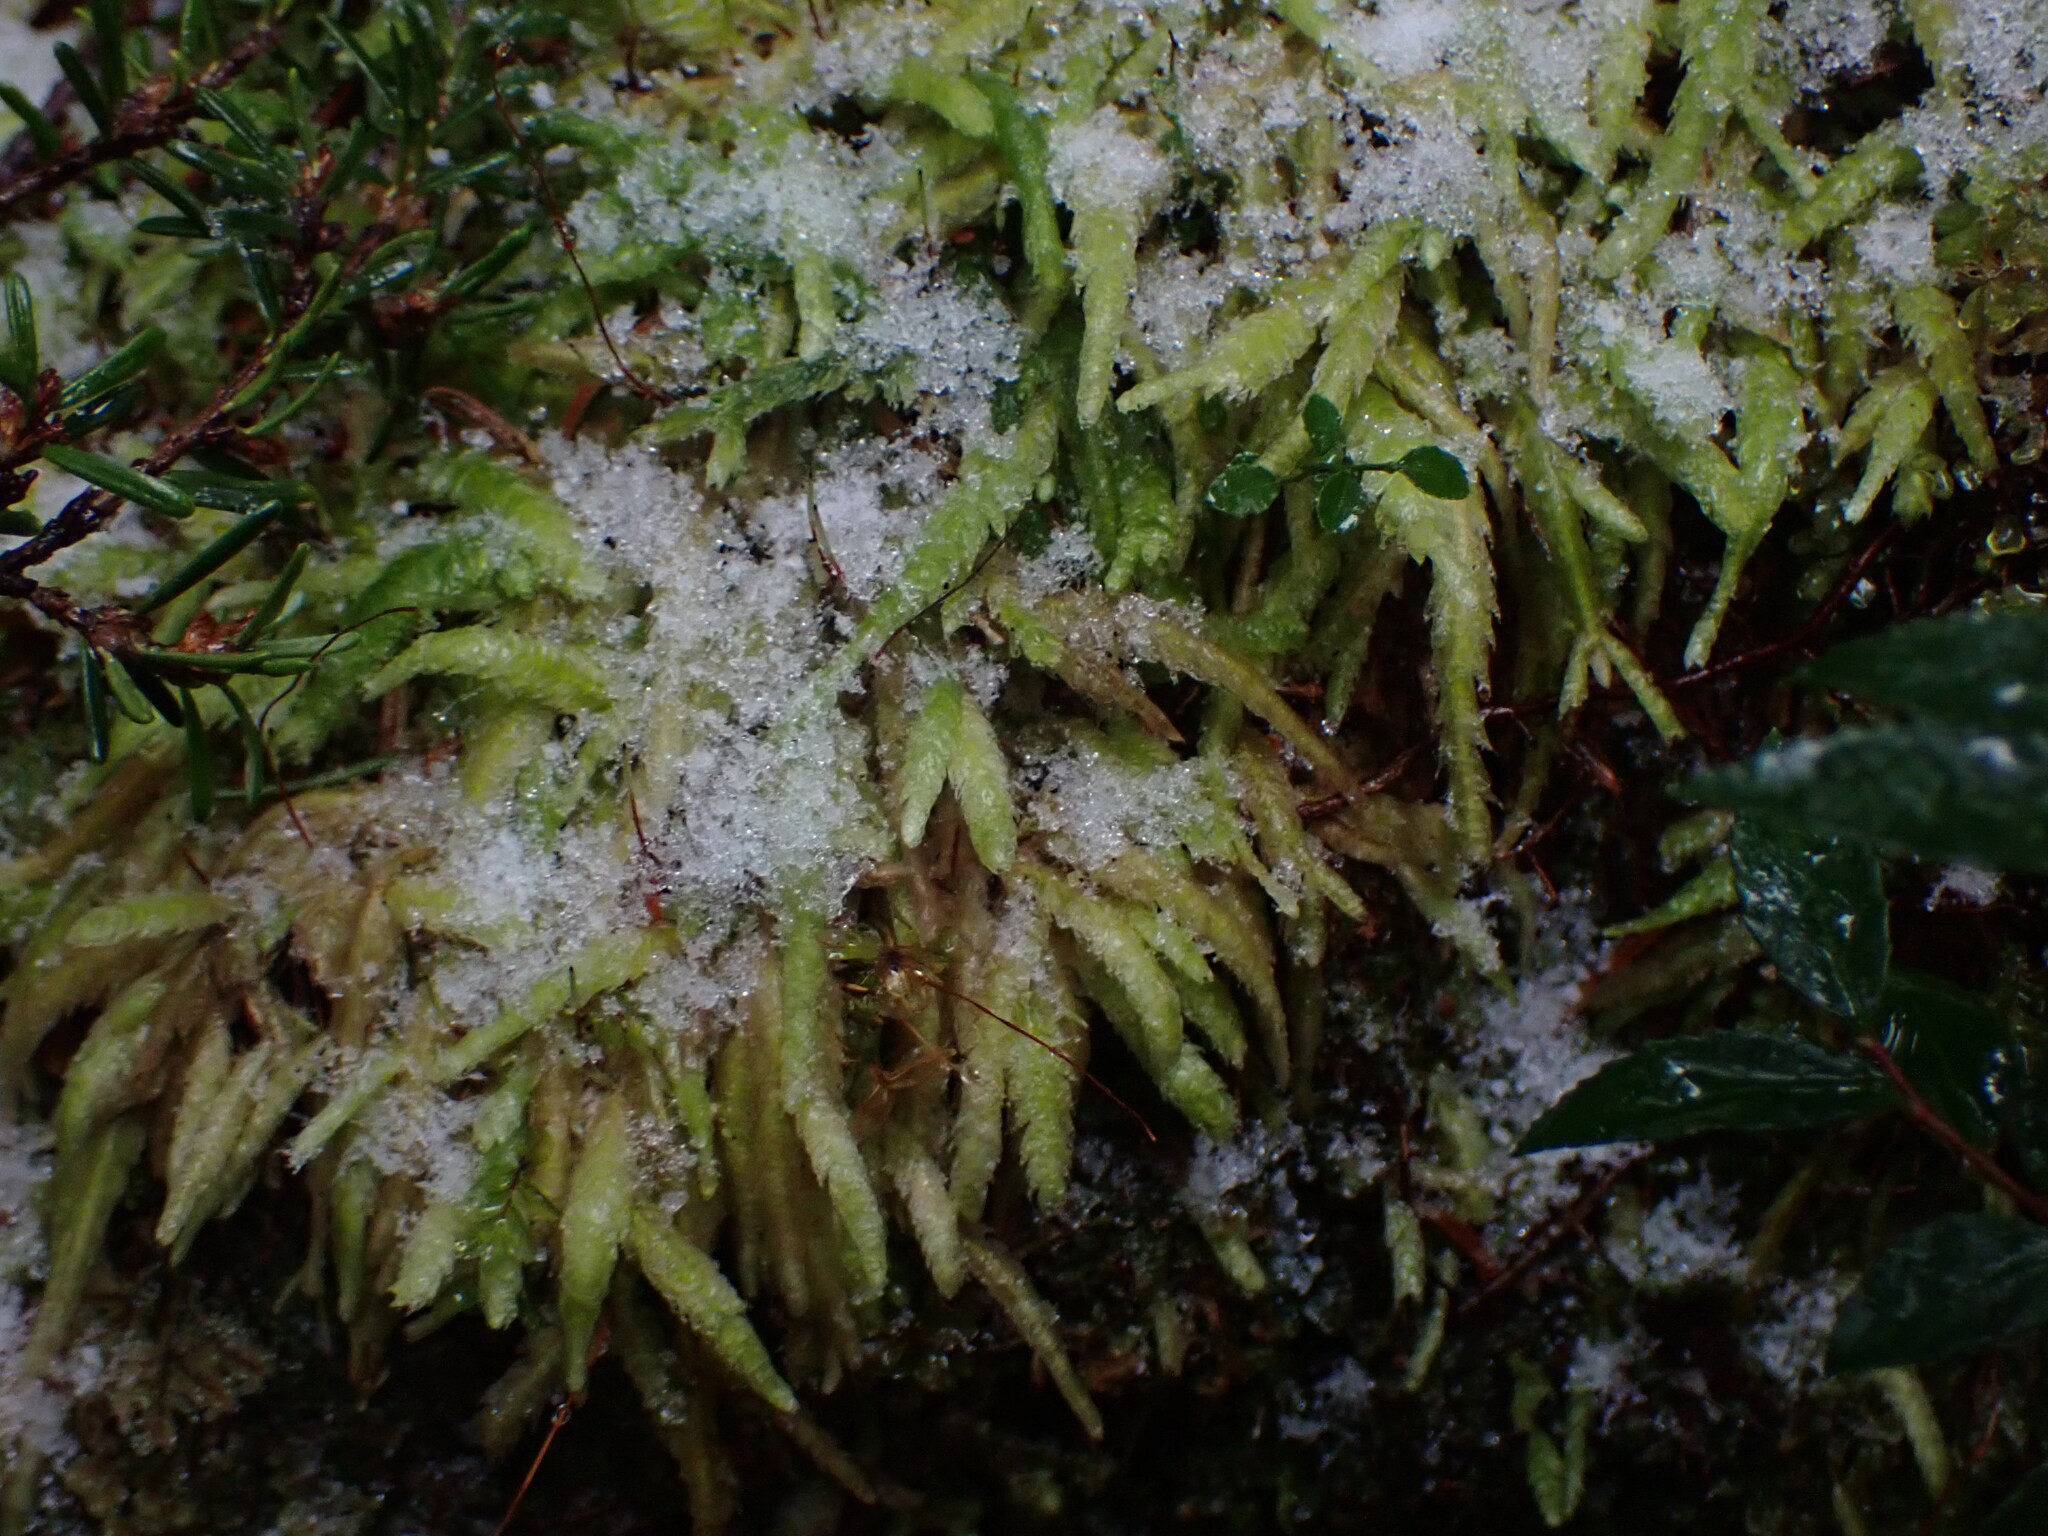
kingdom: Plantae
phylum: Bryophyta
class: Bryopsida
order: Hypnales
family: Plagiotheciaceae
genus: Plagiothecium
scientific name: Plagiothecium undulatum
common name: Waved silk-moss
